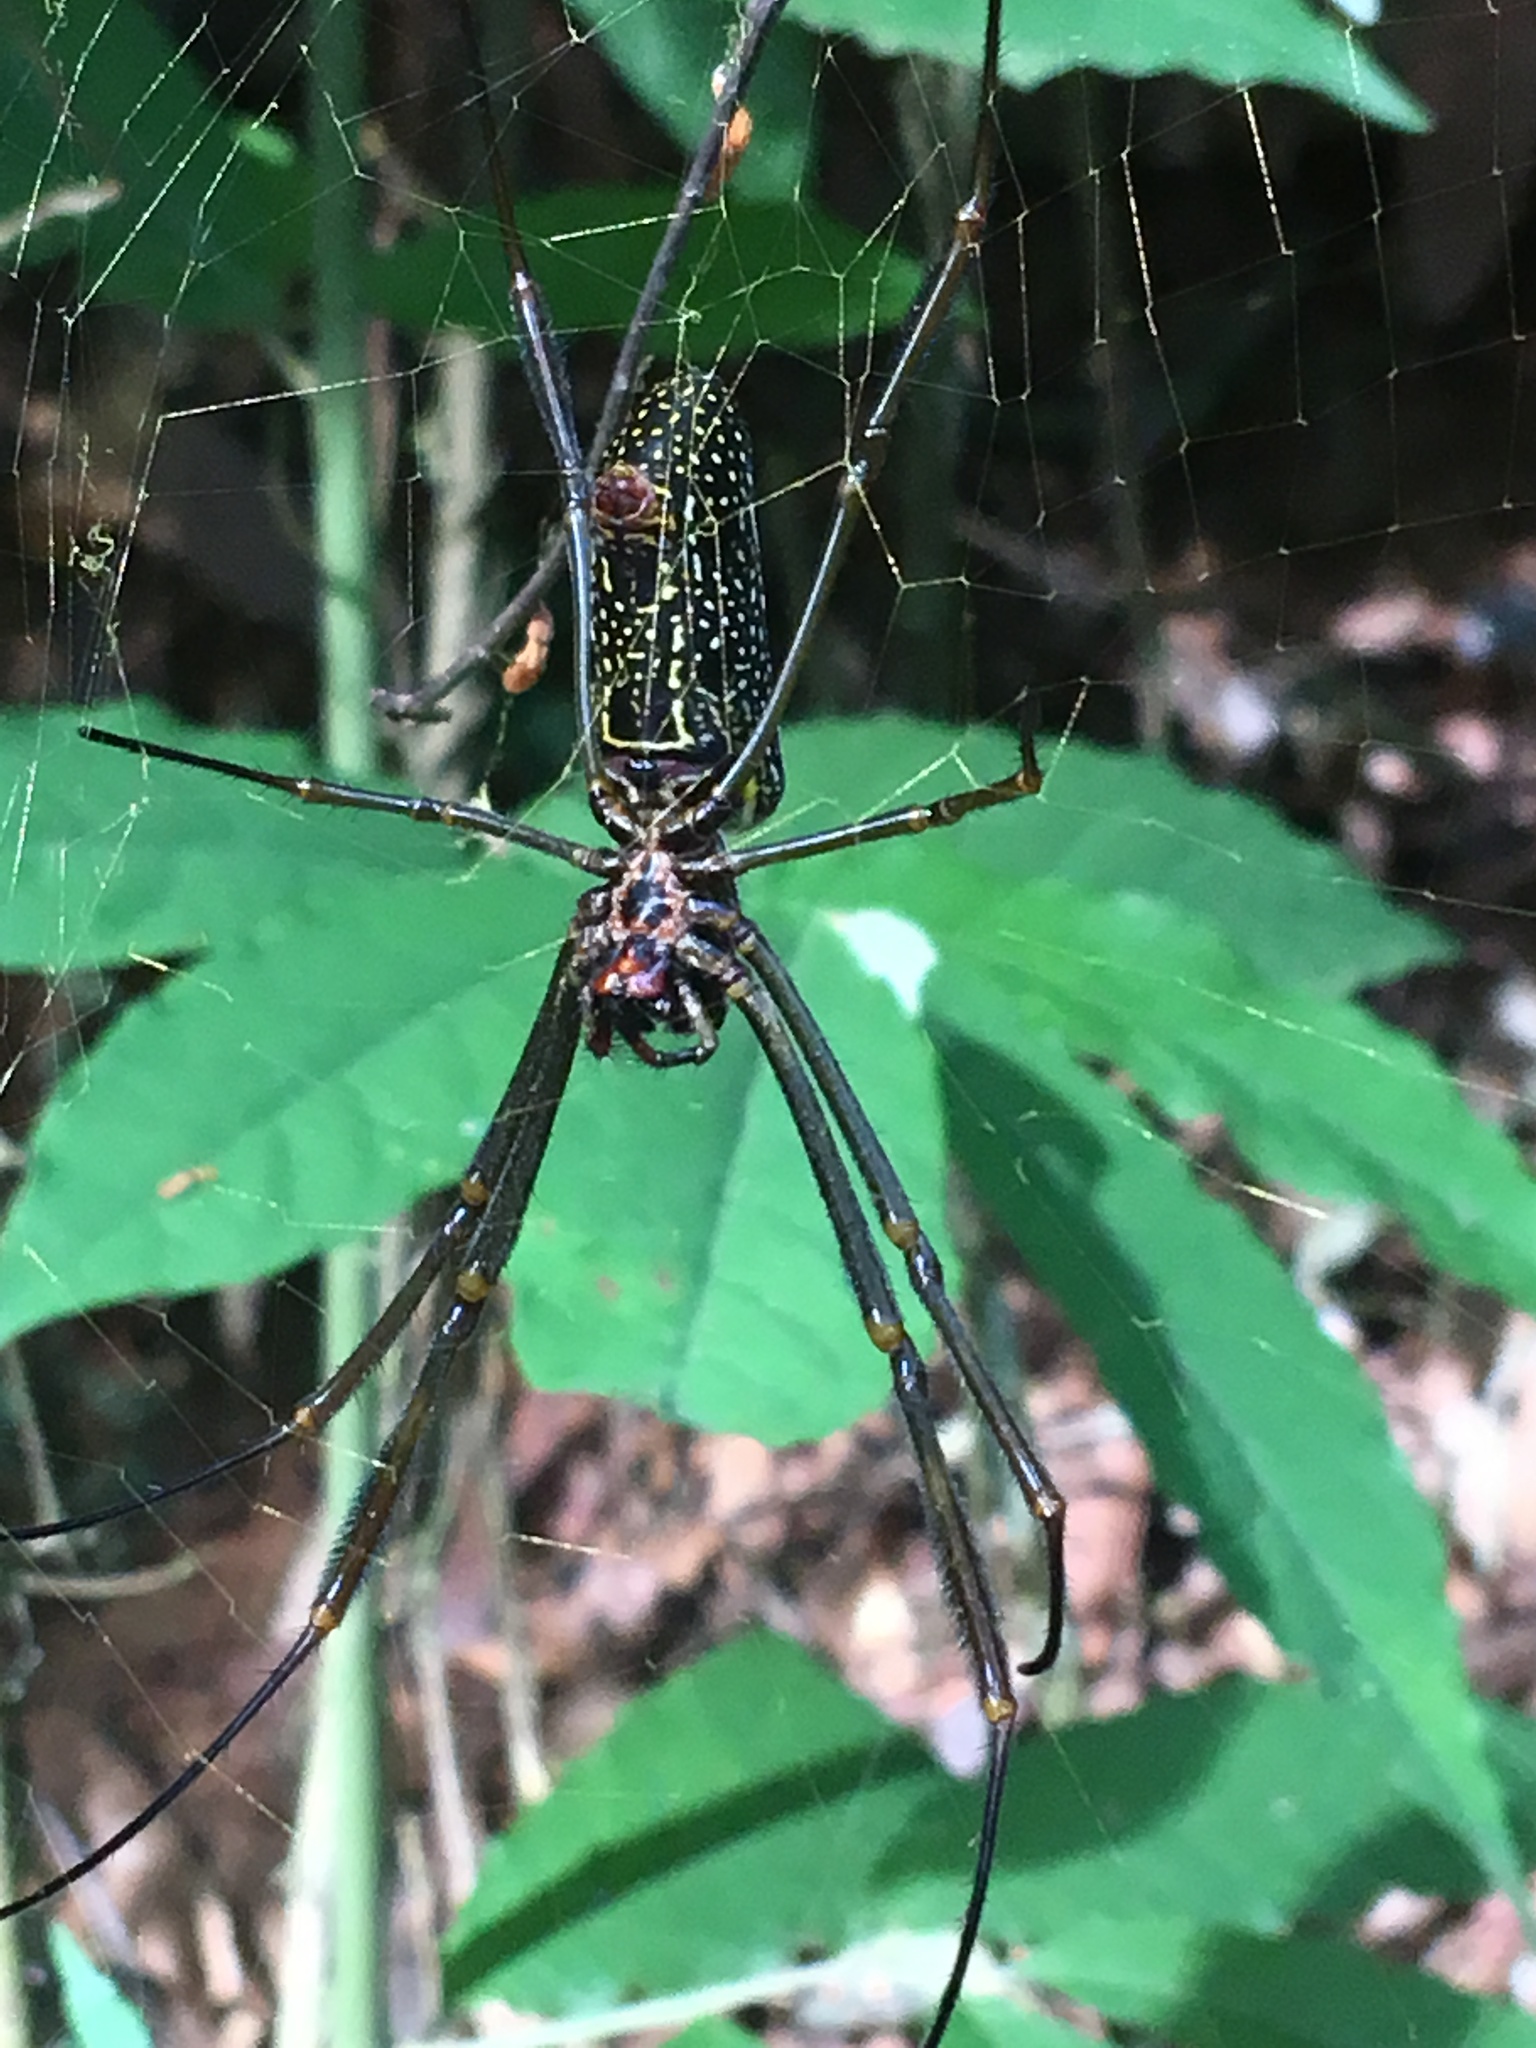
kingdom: Animalia
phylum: Arthropoda
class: Arachnida
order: Araneae
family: Araneidae
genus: Trichonephila
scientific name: Trichonephila clavipes
